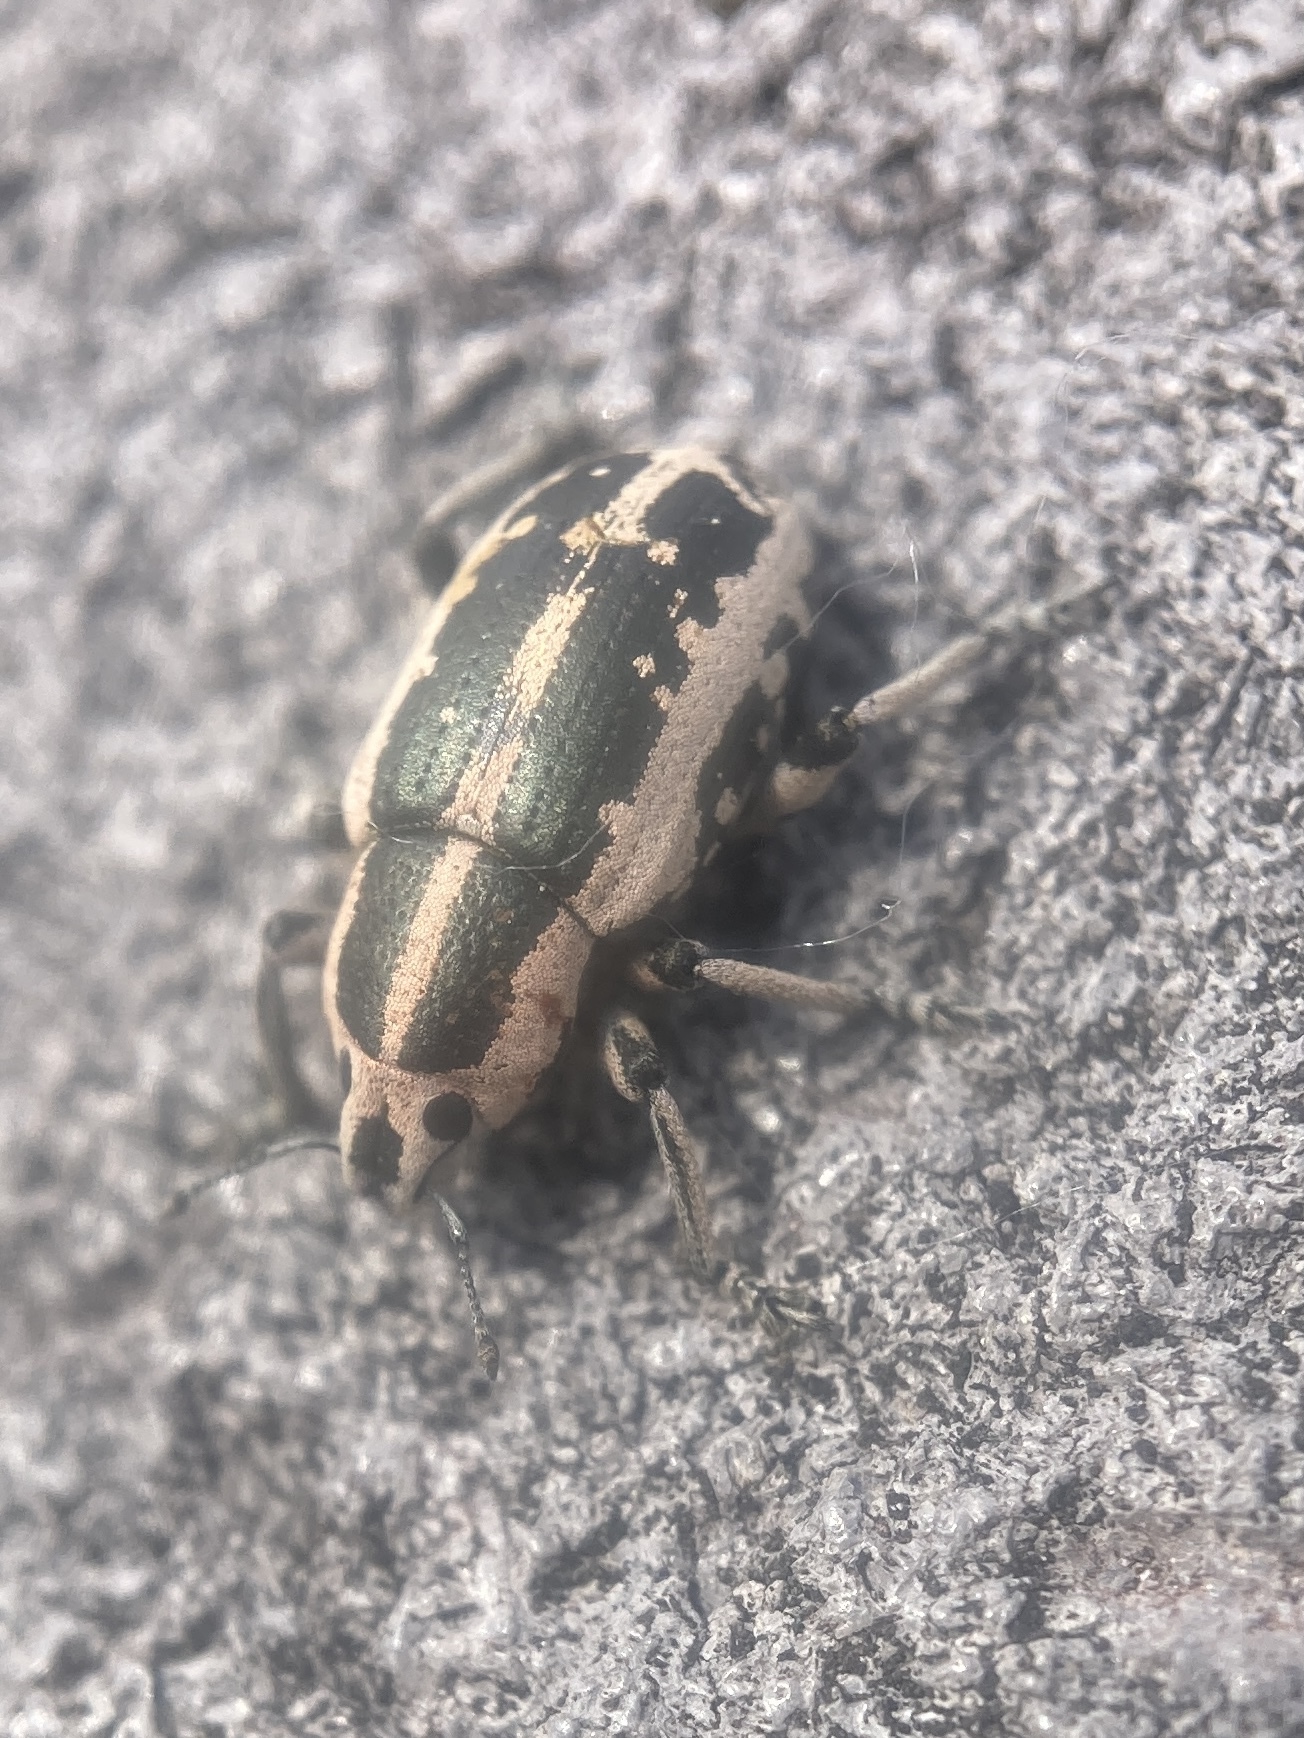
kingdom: Animalia
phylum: Arthropoda
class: Insecta
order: Coleoptera
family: Curculionidae
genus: Eudiagogus
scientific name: Eudiagogus rosenschoeldi
